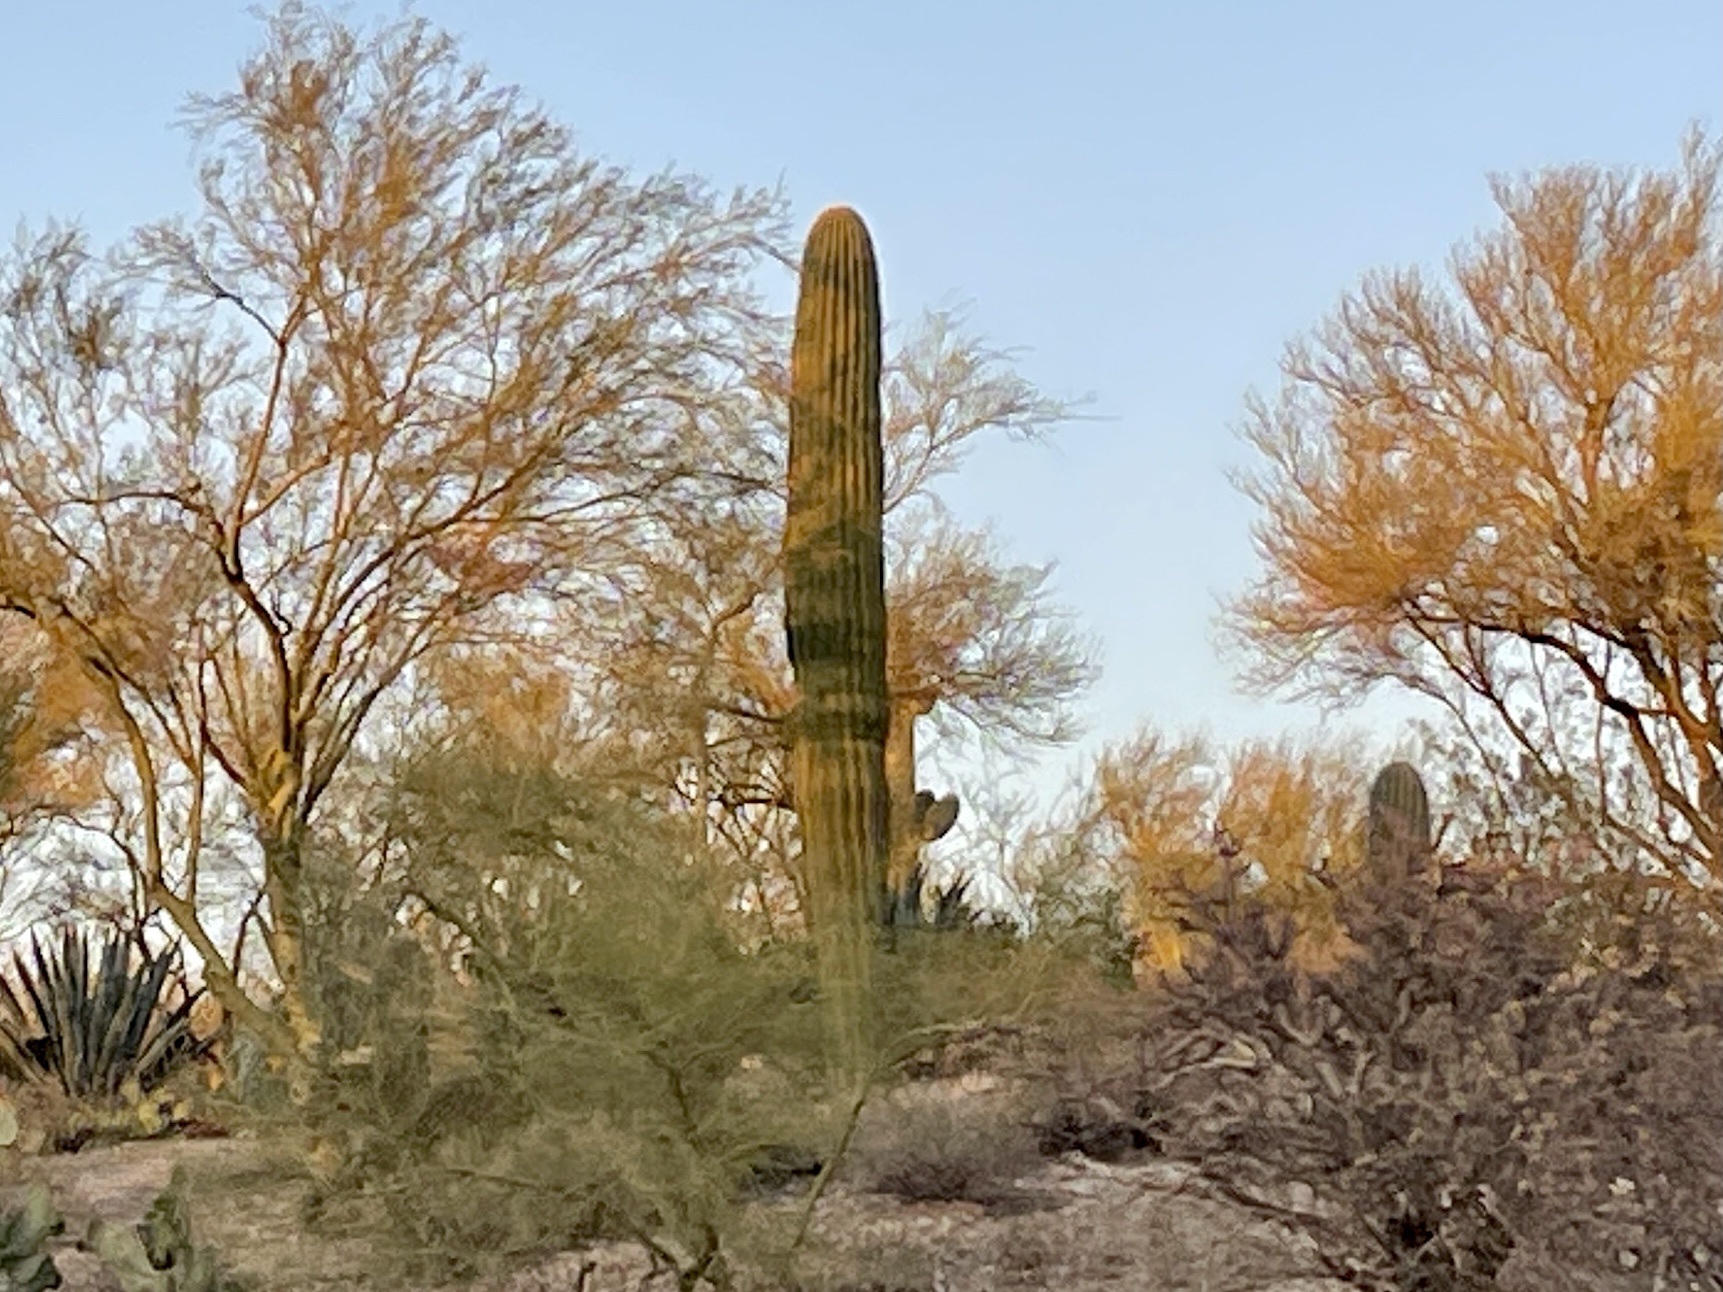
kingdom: Plantae
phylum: Tracheophyta
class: Magnoliopsida
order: Caryophyllales
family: Cactaceae
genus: Carnegiea
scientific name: Carnegiea gigantea
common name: Saguaro
